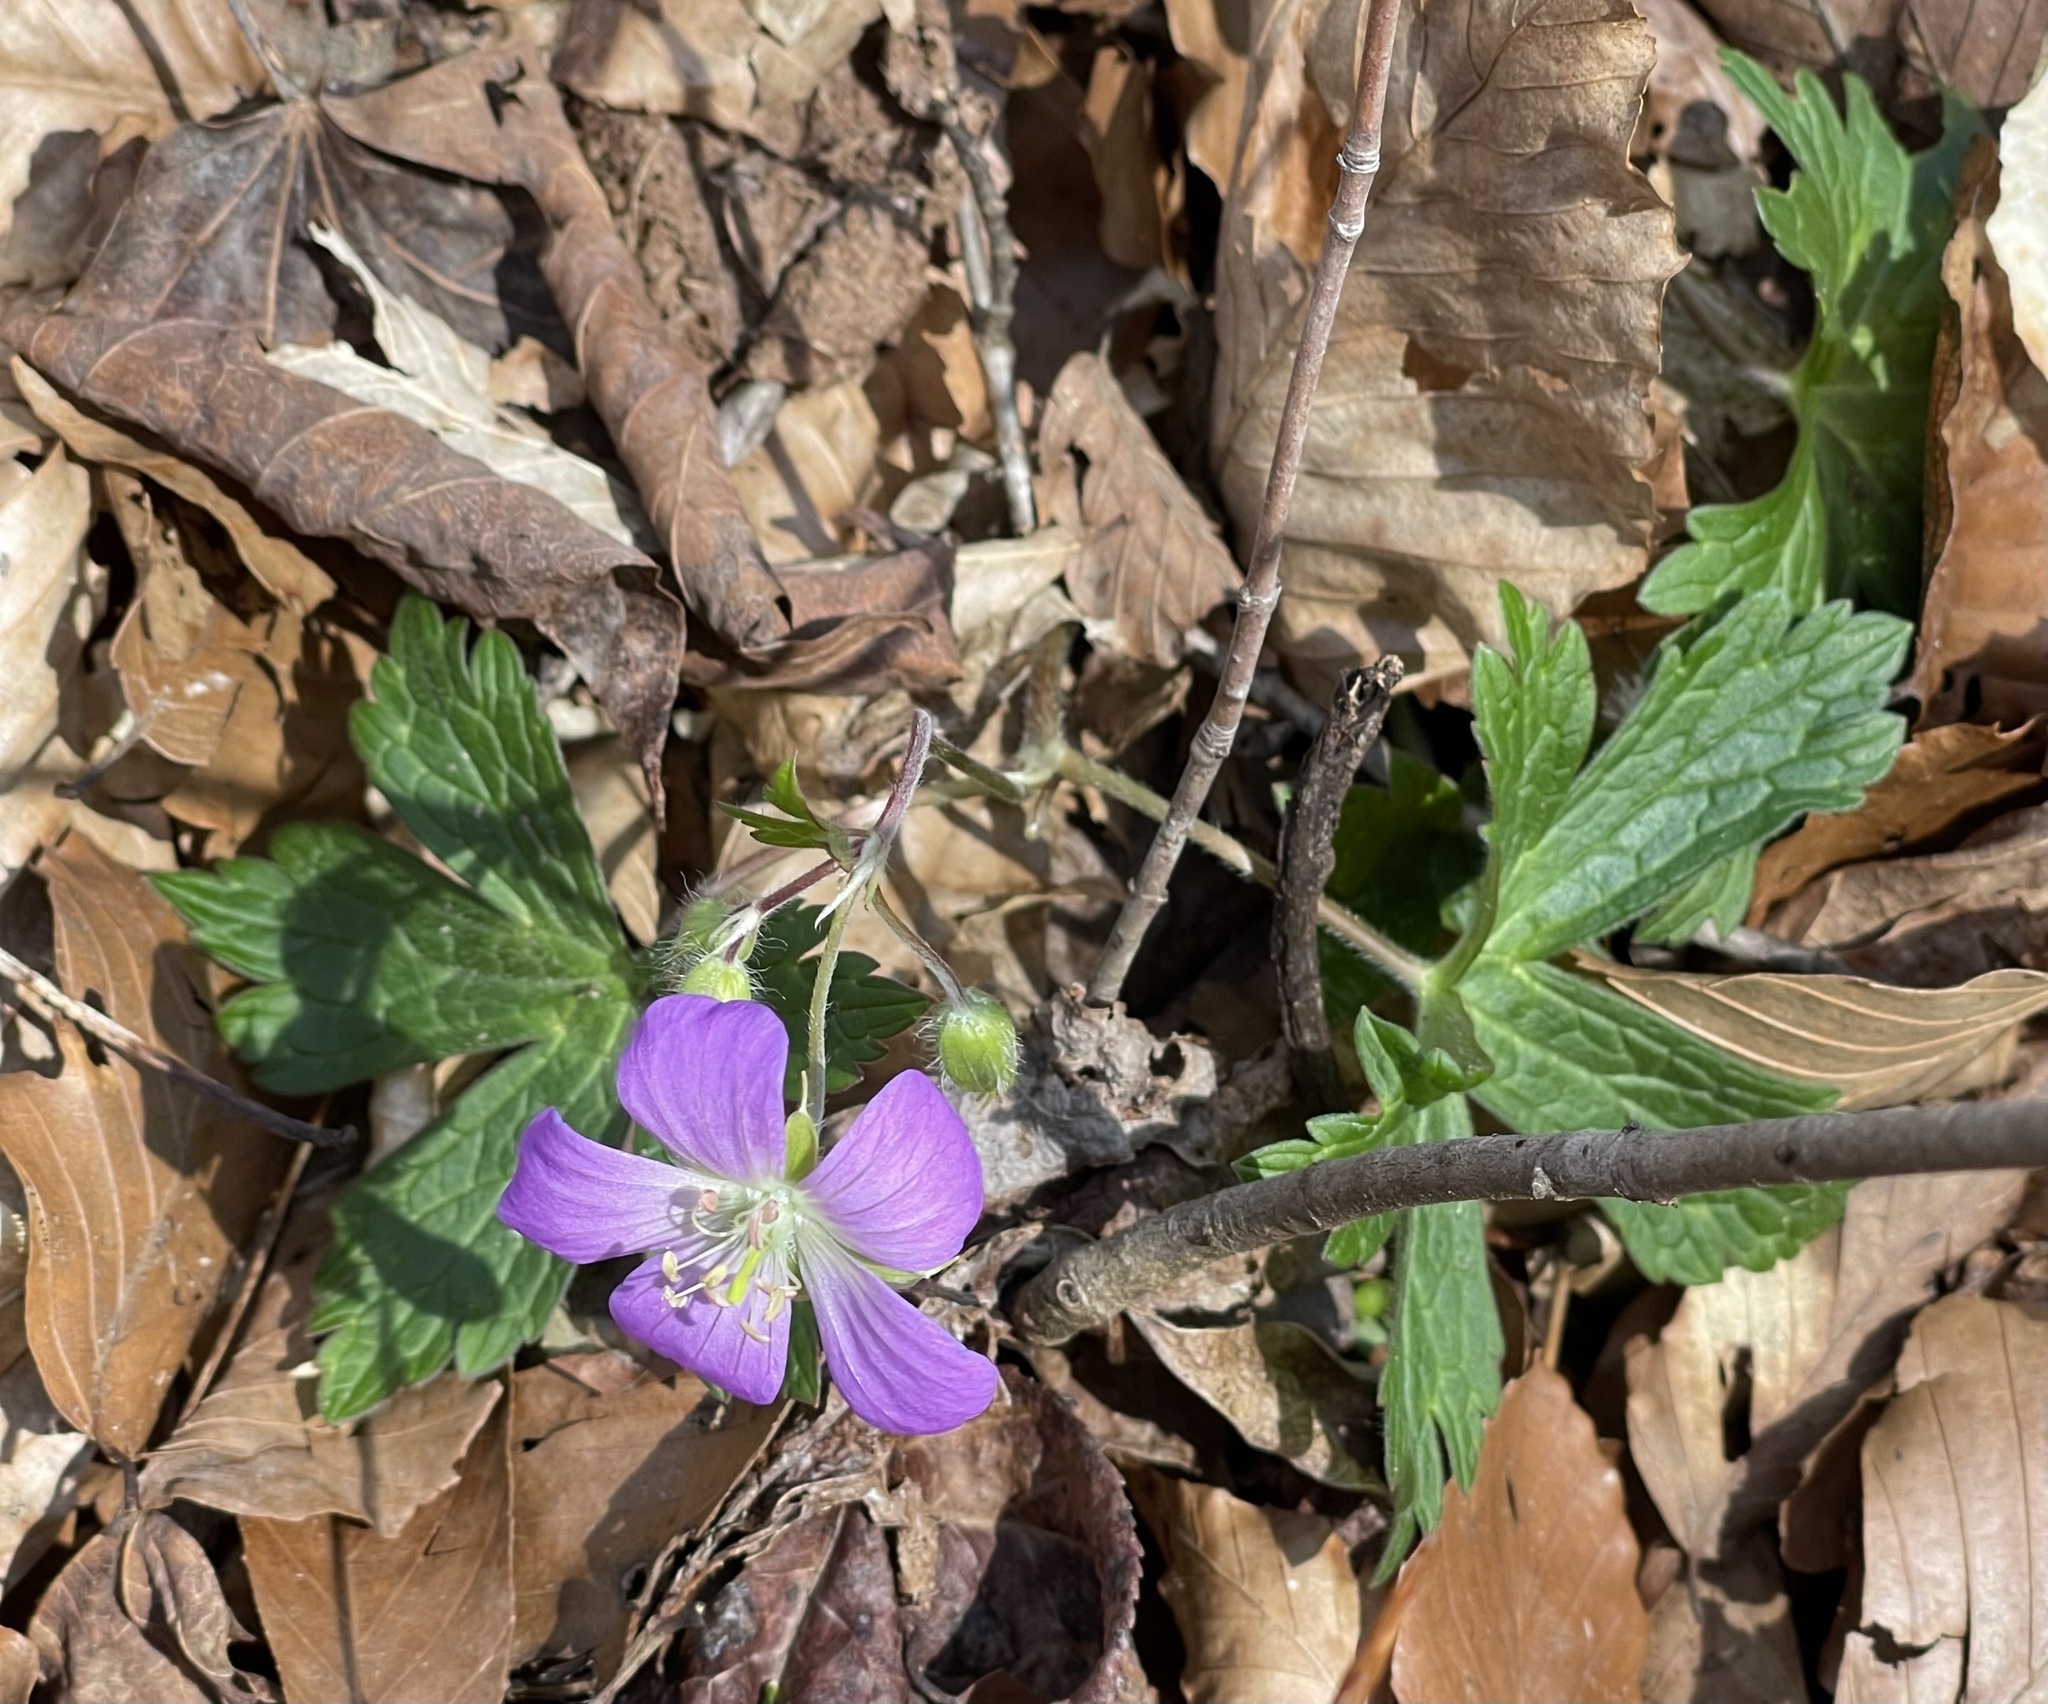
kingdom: Plantae
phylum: Tracheophyta
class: Magnoliopsida
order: Geraniales
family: Geraniaceae
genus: Geranium
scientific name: Geranium maculatum
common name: Spotted geranium
